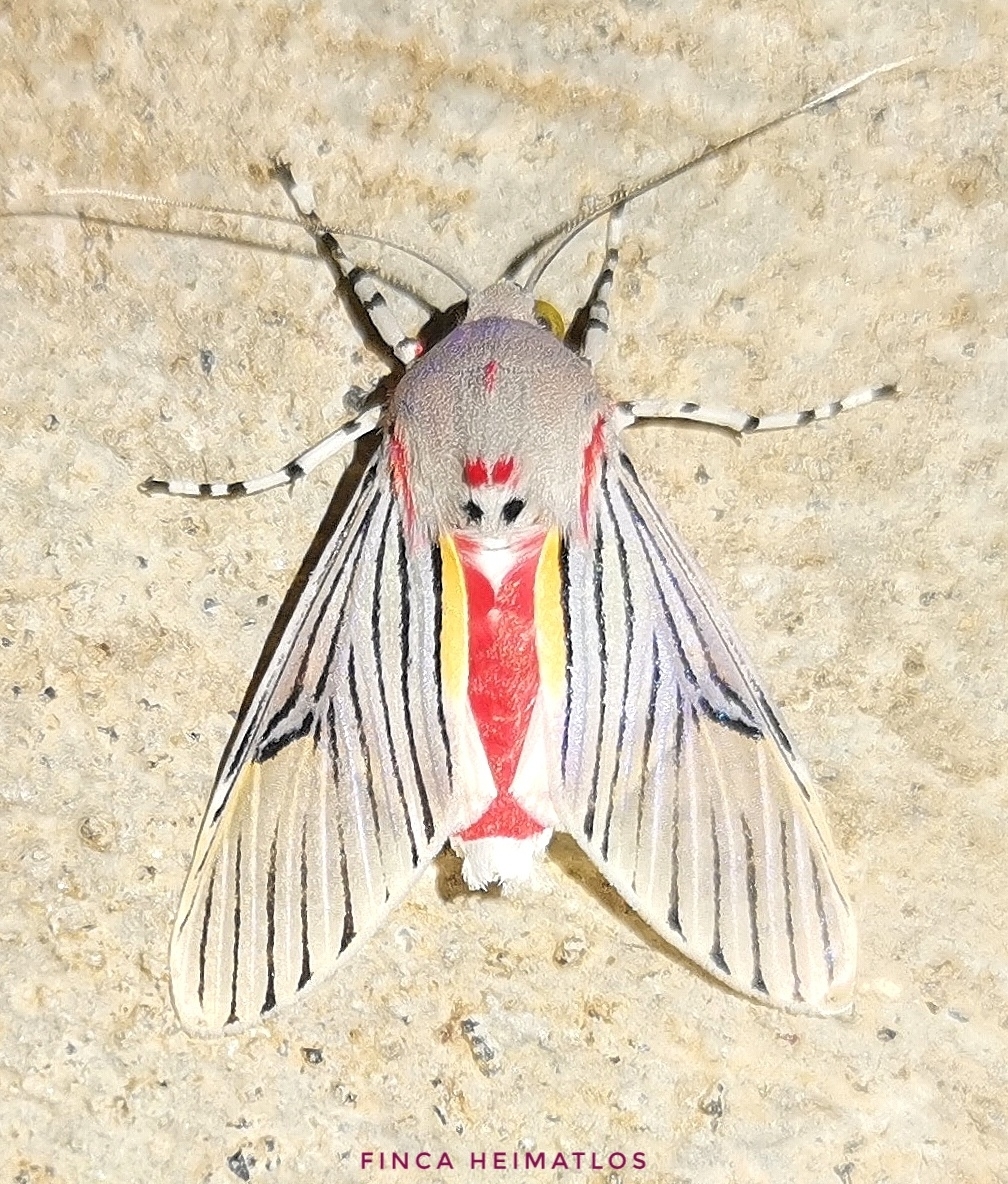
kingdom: Animalia
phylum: Arthropoda
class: Insecta
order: Lepidoptera
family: Erebidae
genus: Idalus
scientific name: Idalus sublineata
